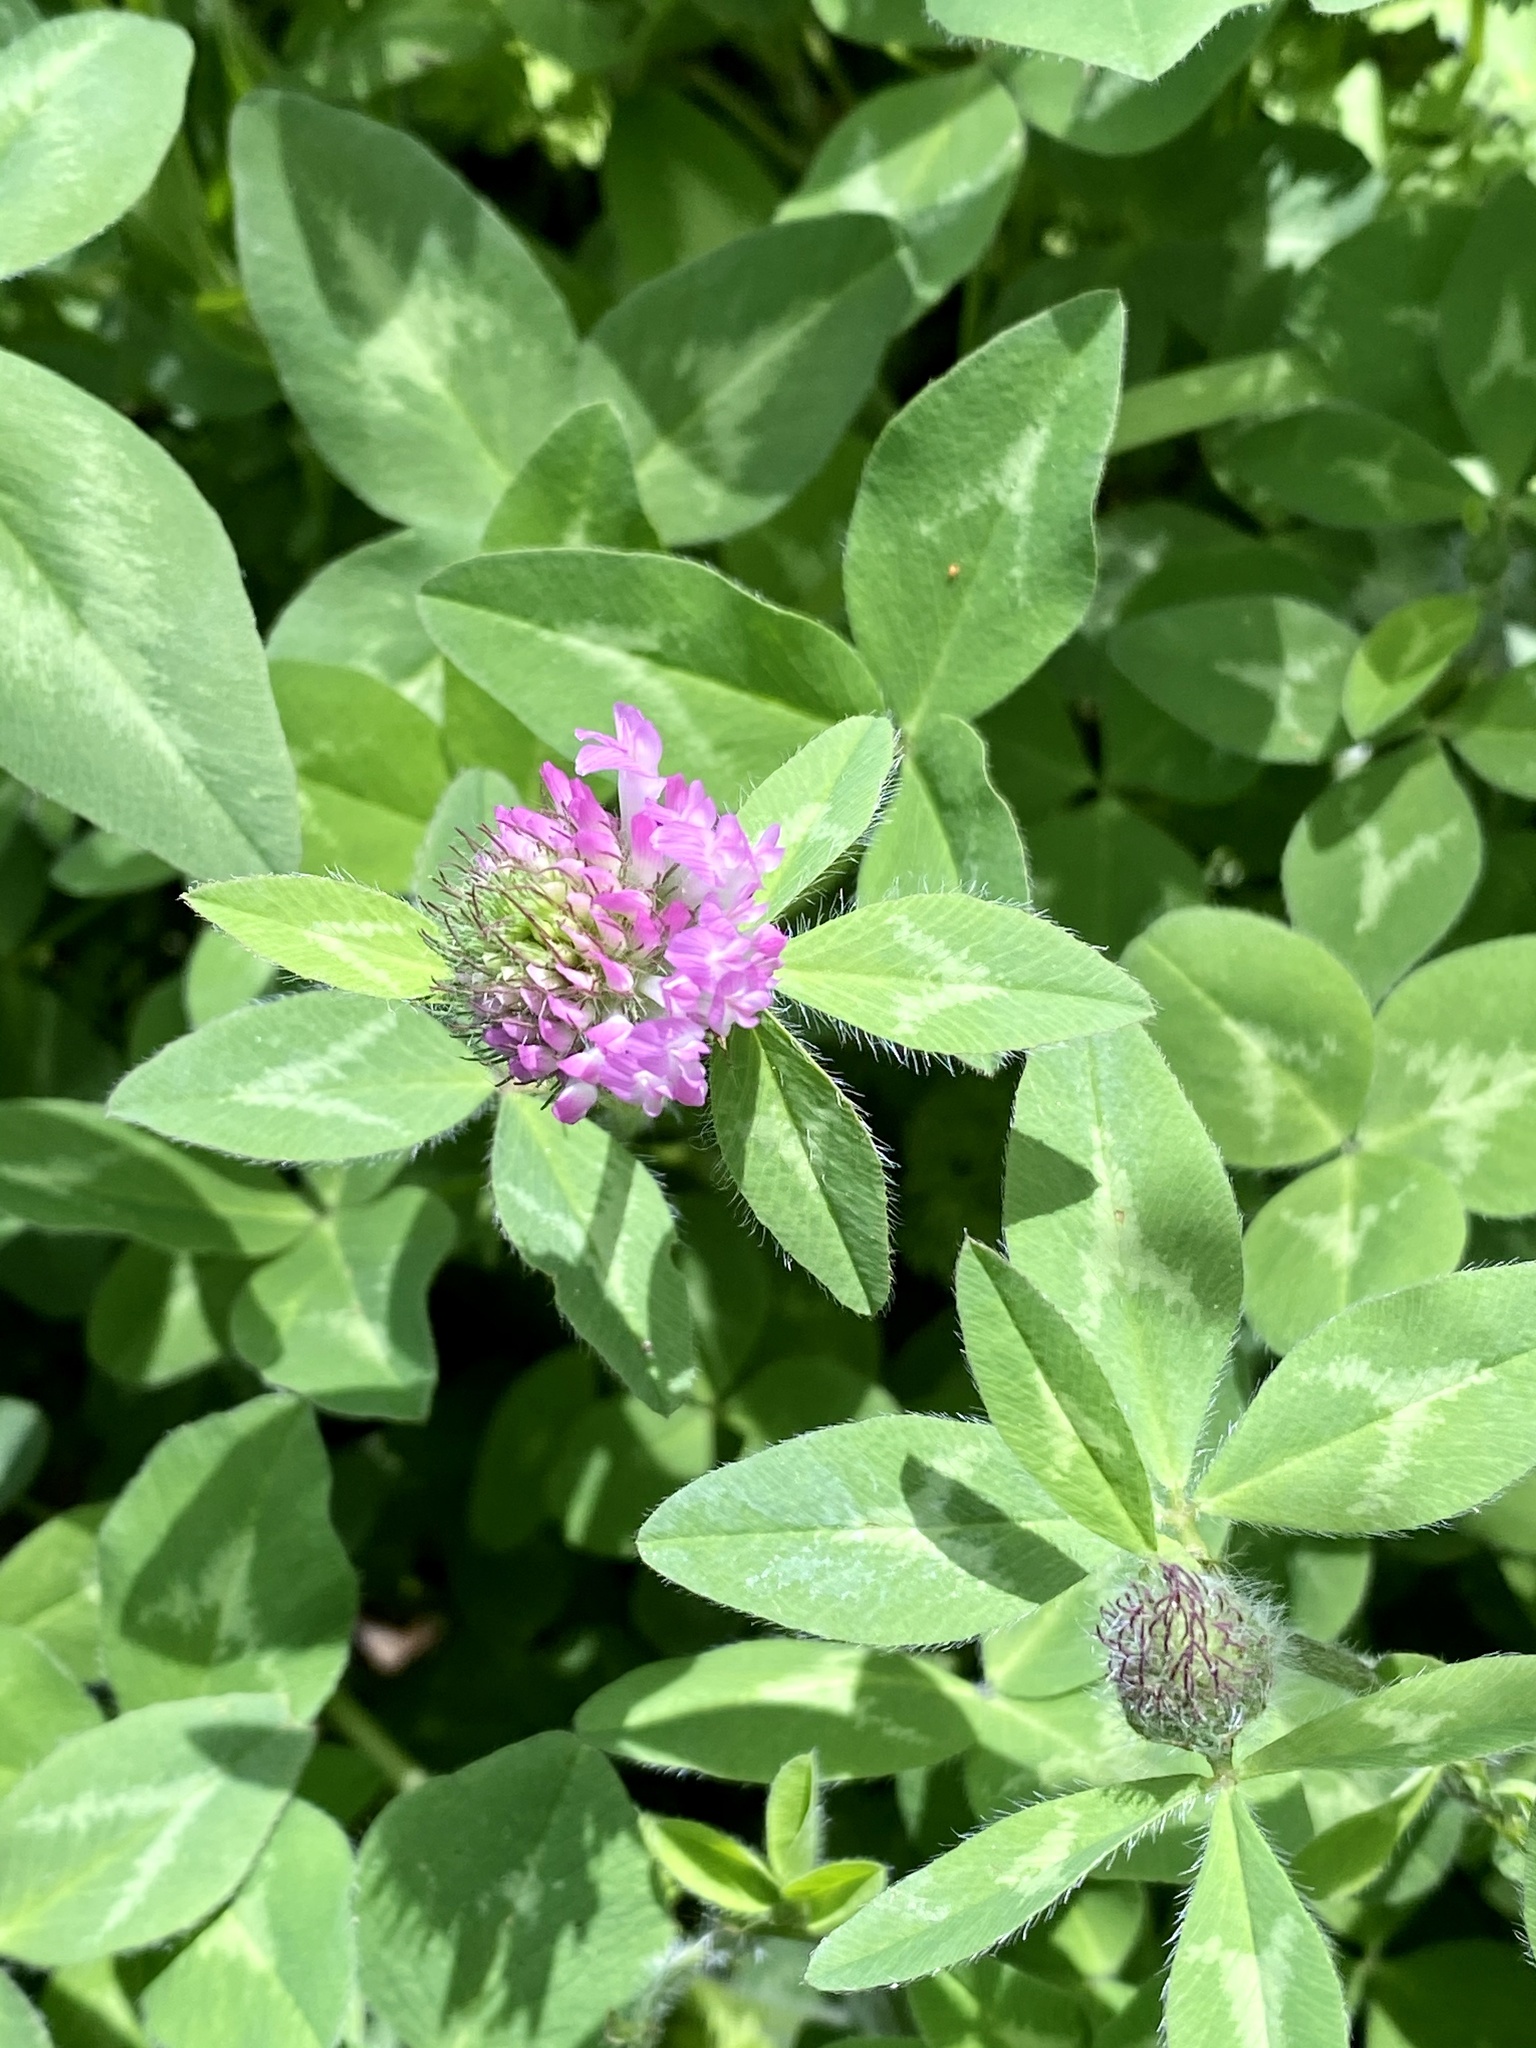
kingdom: Plantae
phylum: Tracheophyta
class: Magnoliopsida
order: Fabales
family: Fabaceae
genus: Trifolium
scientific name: Trifolium pratense
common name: Red clover
